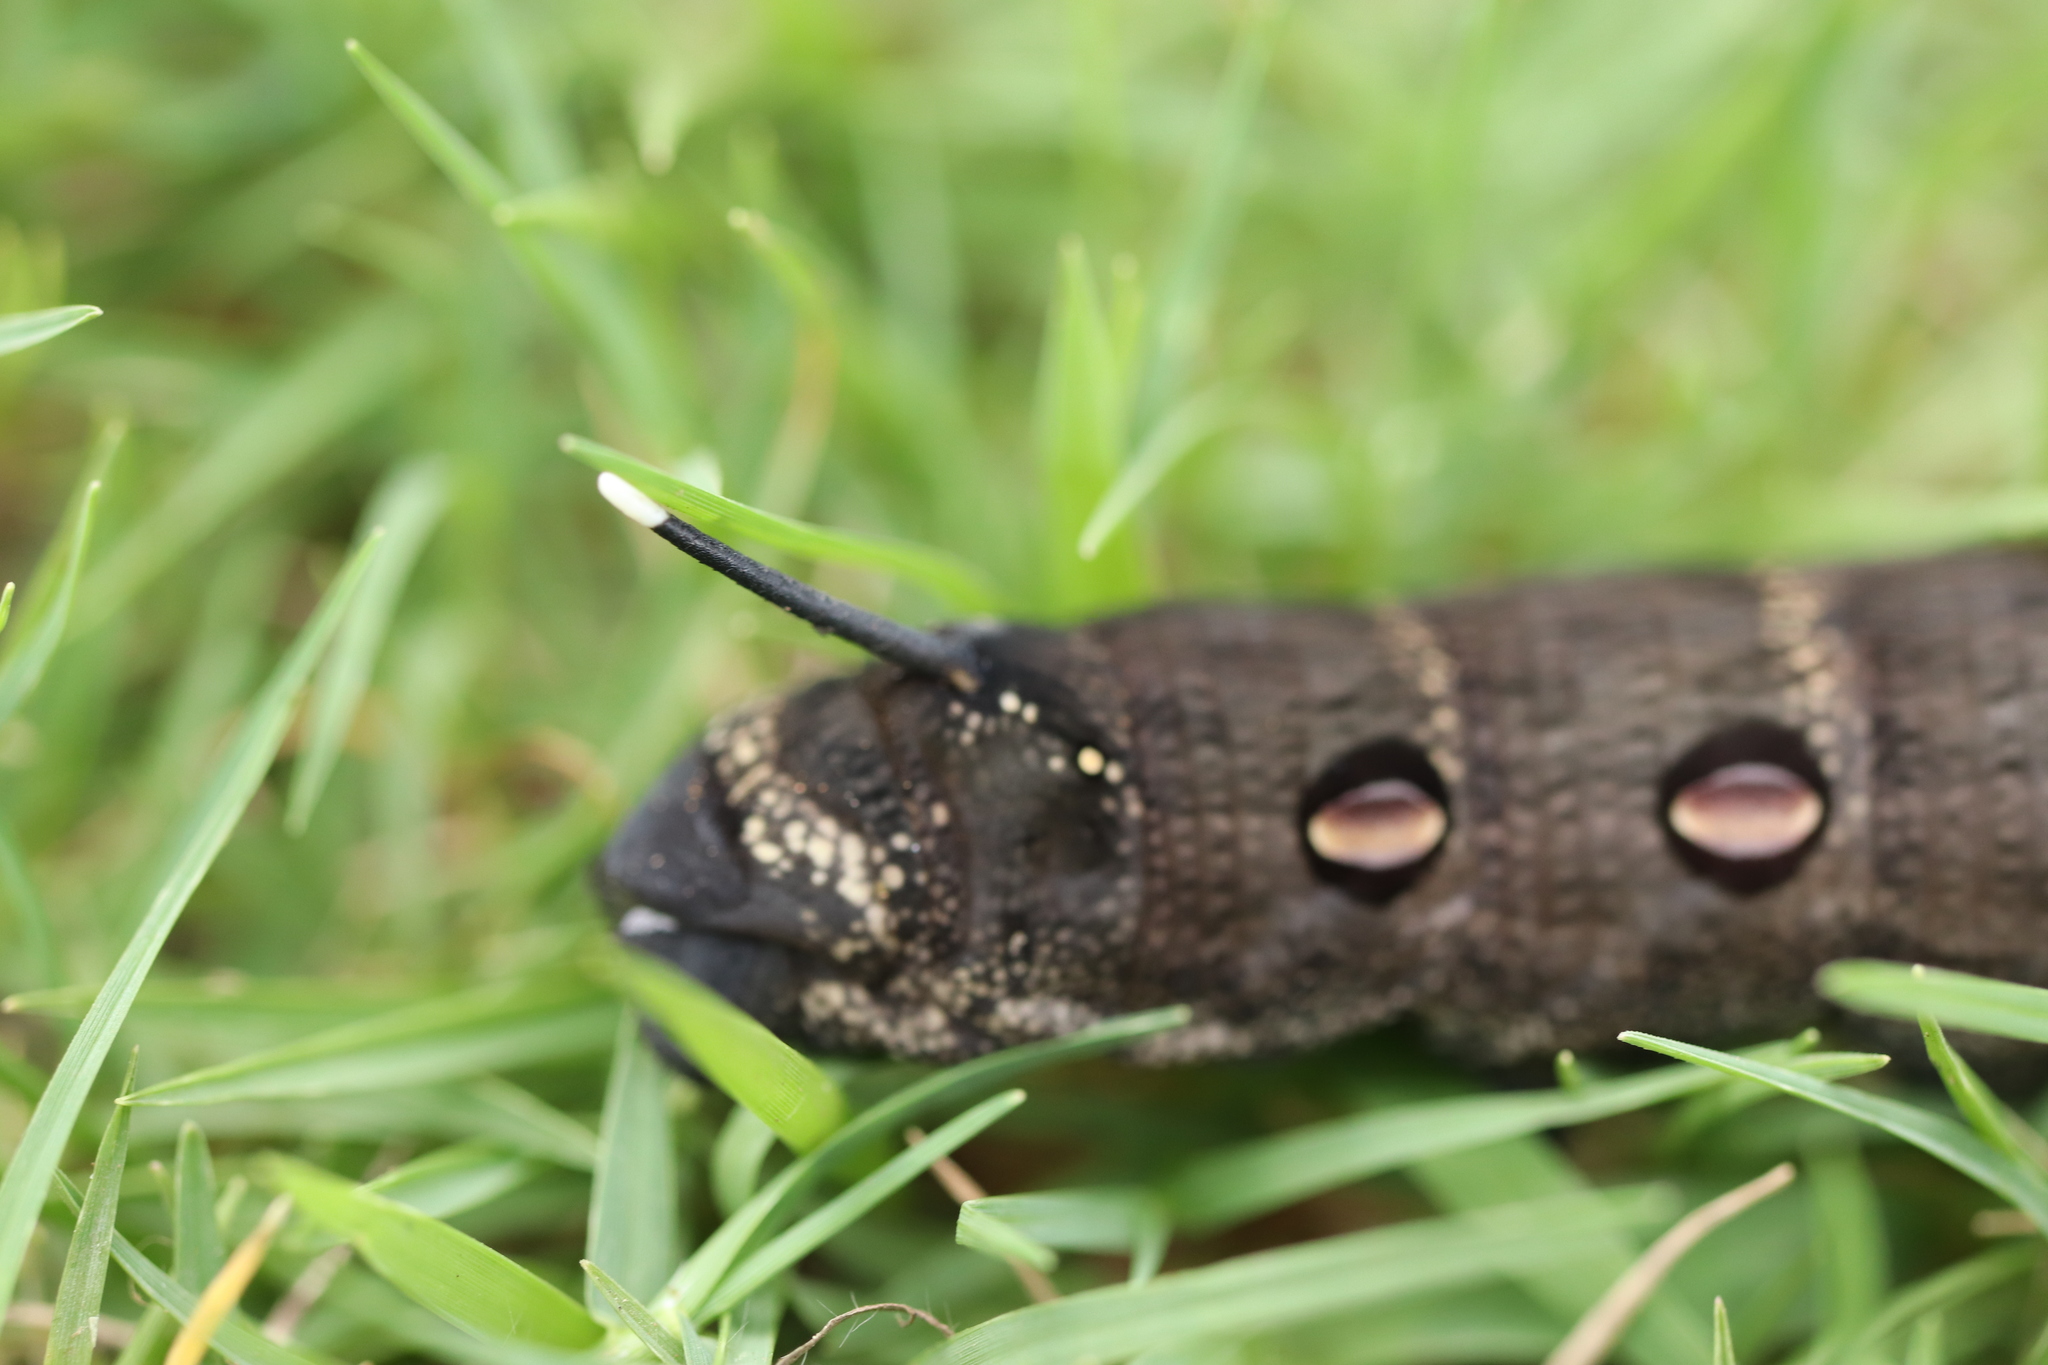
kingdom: Animalia
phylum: Arthropoda
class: Insecta
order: Lepidoptera
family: Sphingidae
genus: Theretra
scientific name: Theretra oldenlandiae
